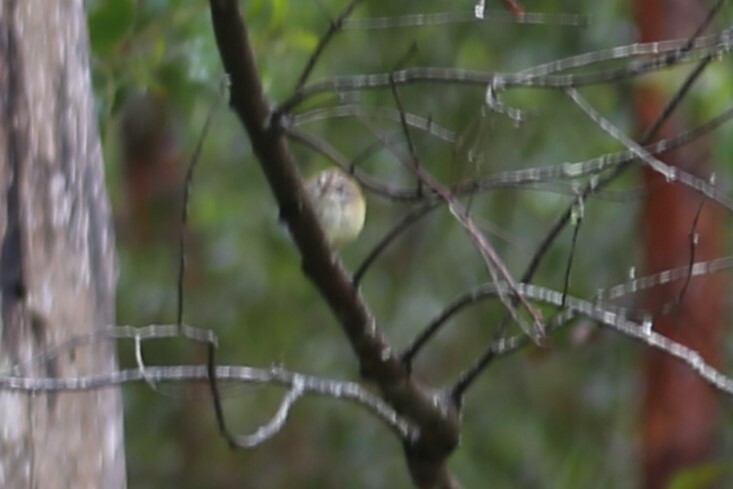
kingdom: Animalia
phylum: Chordata
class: Aves
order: Passeriformes
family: Acanthizidae
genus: Acanthiza
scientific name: Acanthiza lineata
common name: Striated thornbill
